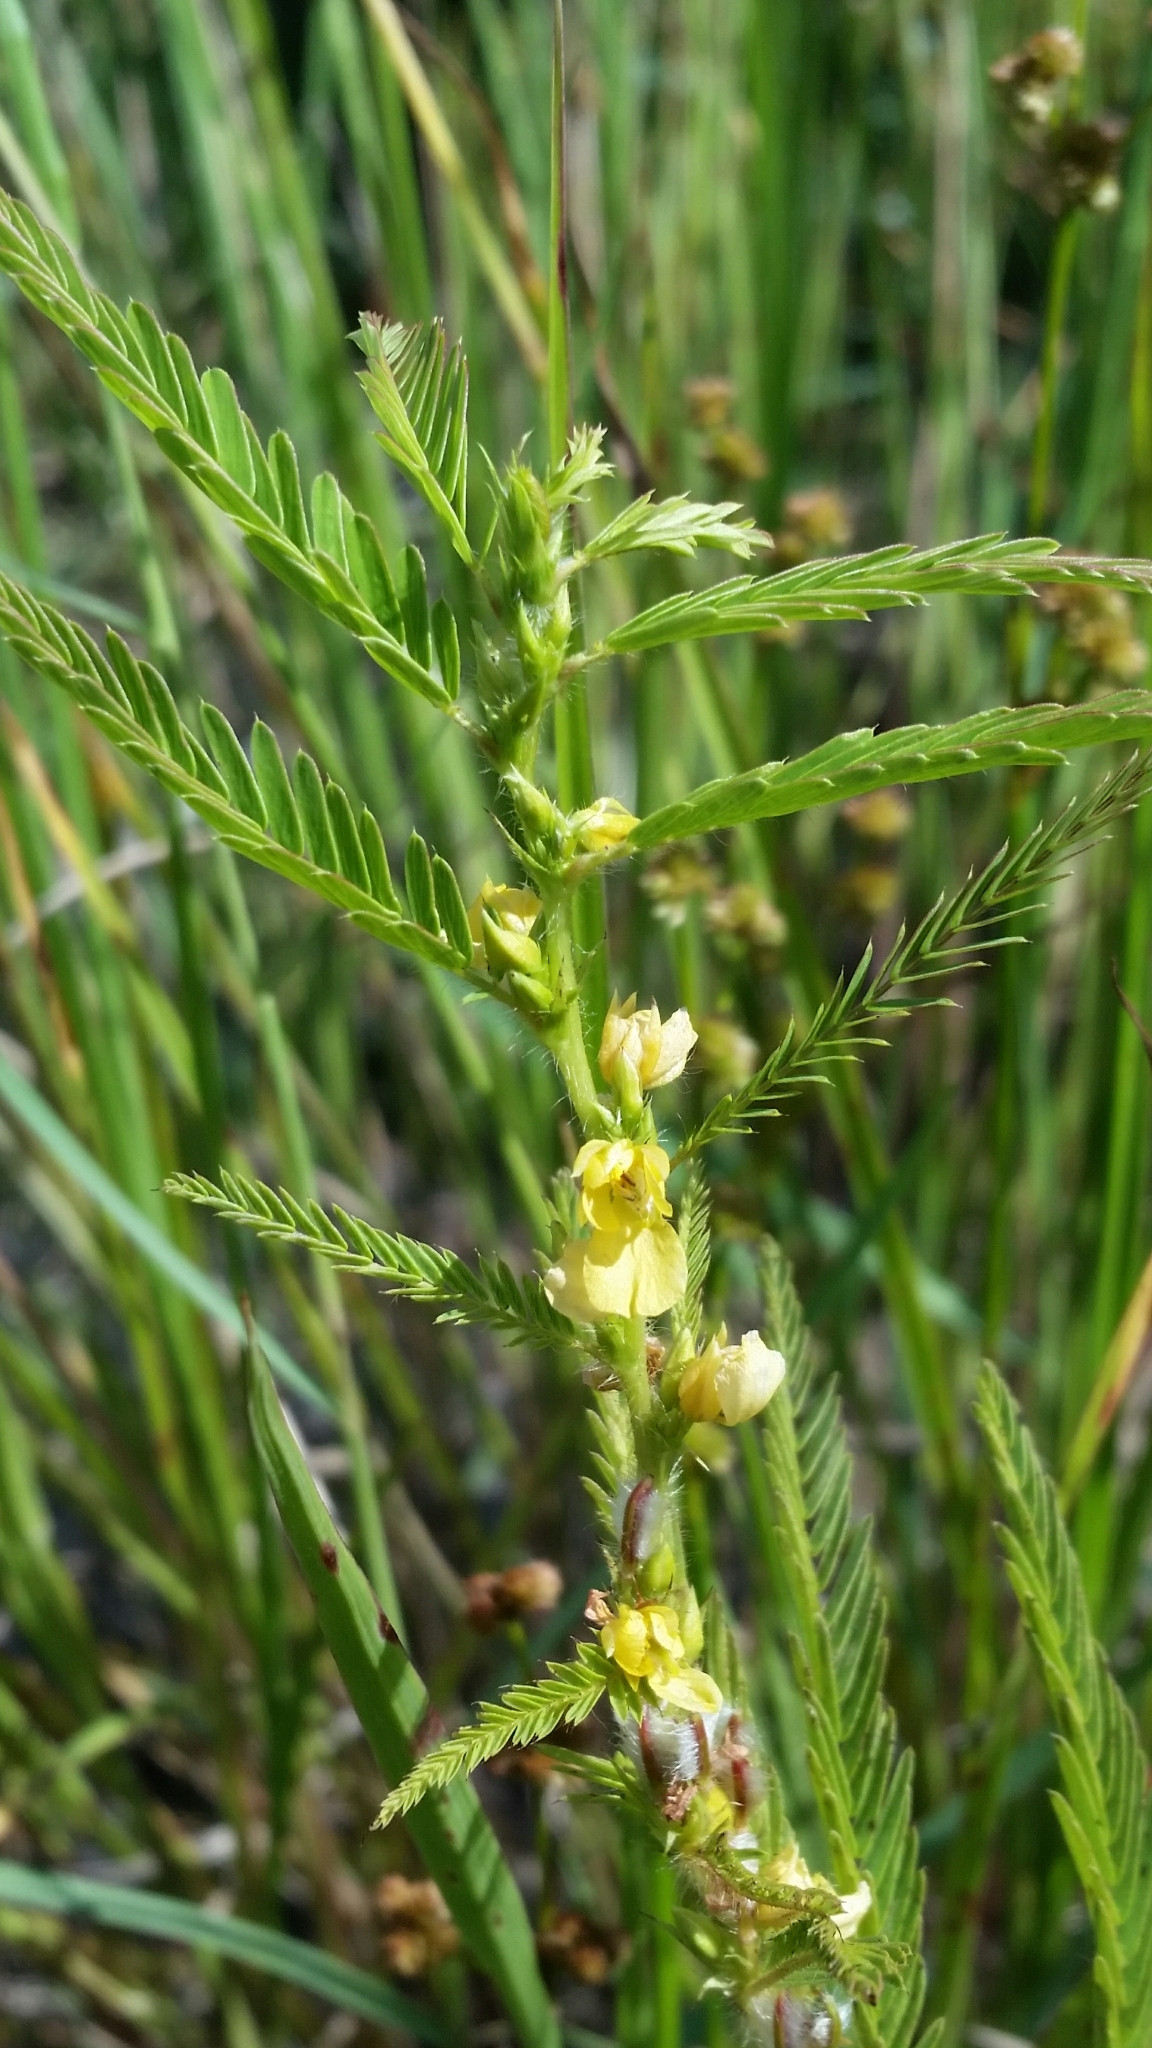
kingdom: Plantae
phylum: Tracheophyta
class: Magnoliopsida
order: Fabales
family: Fabaceae
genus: Chamaecrista
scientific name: Chamaecrista nictitans
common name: Sensitive cassia
